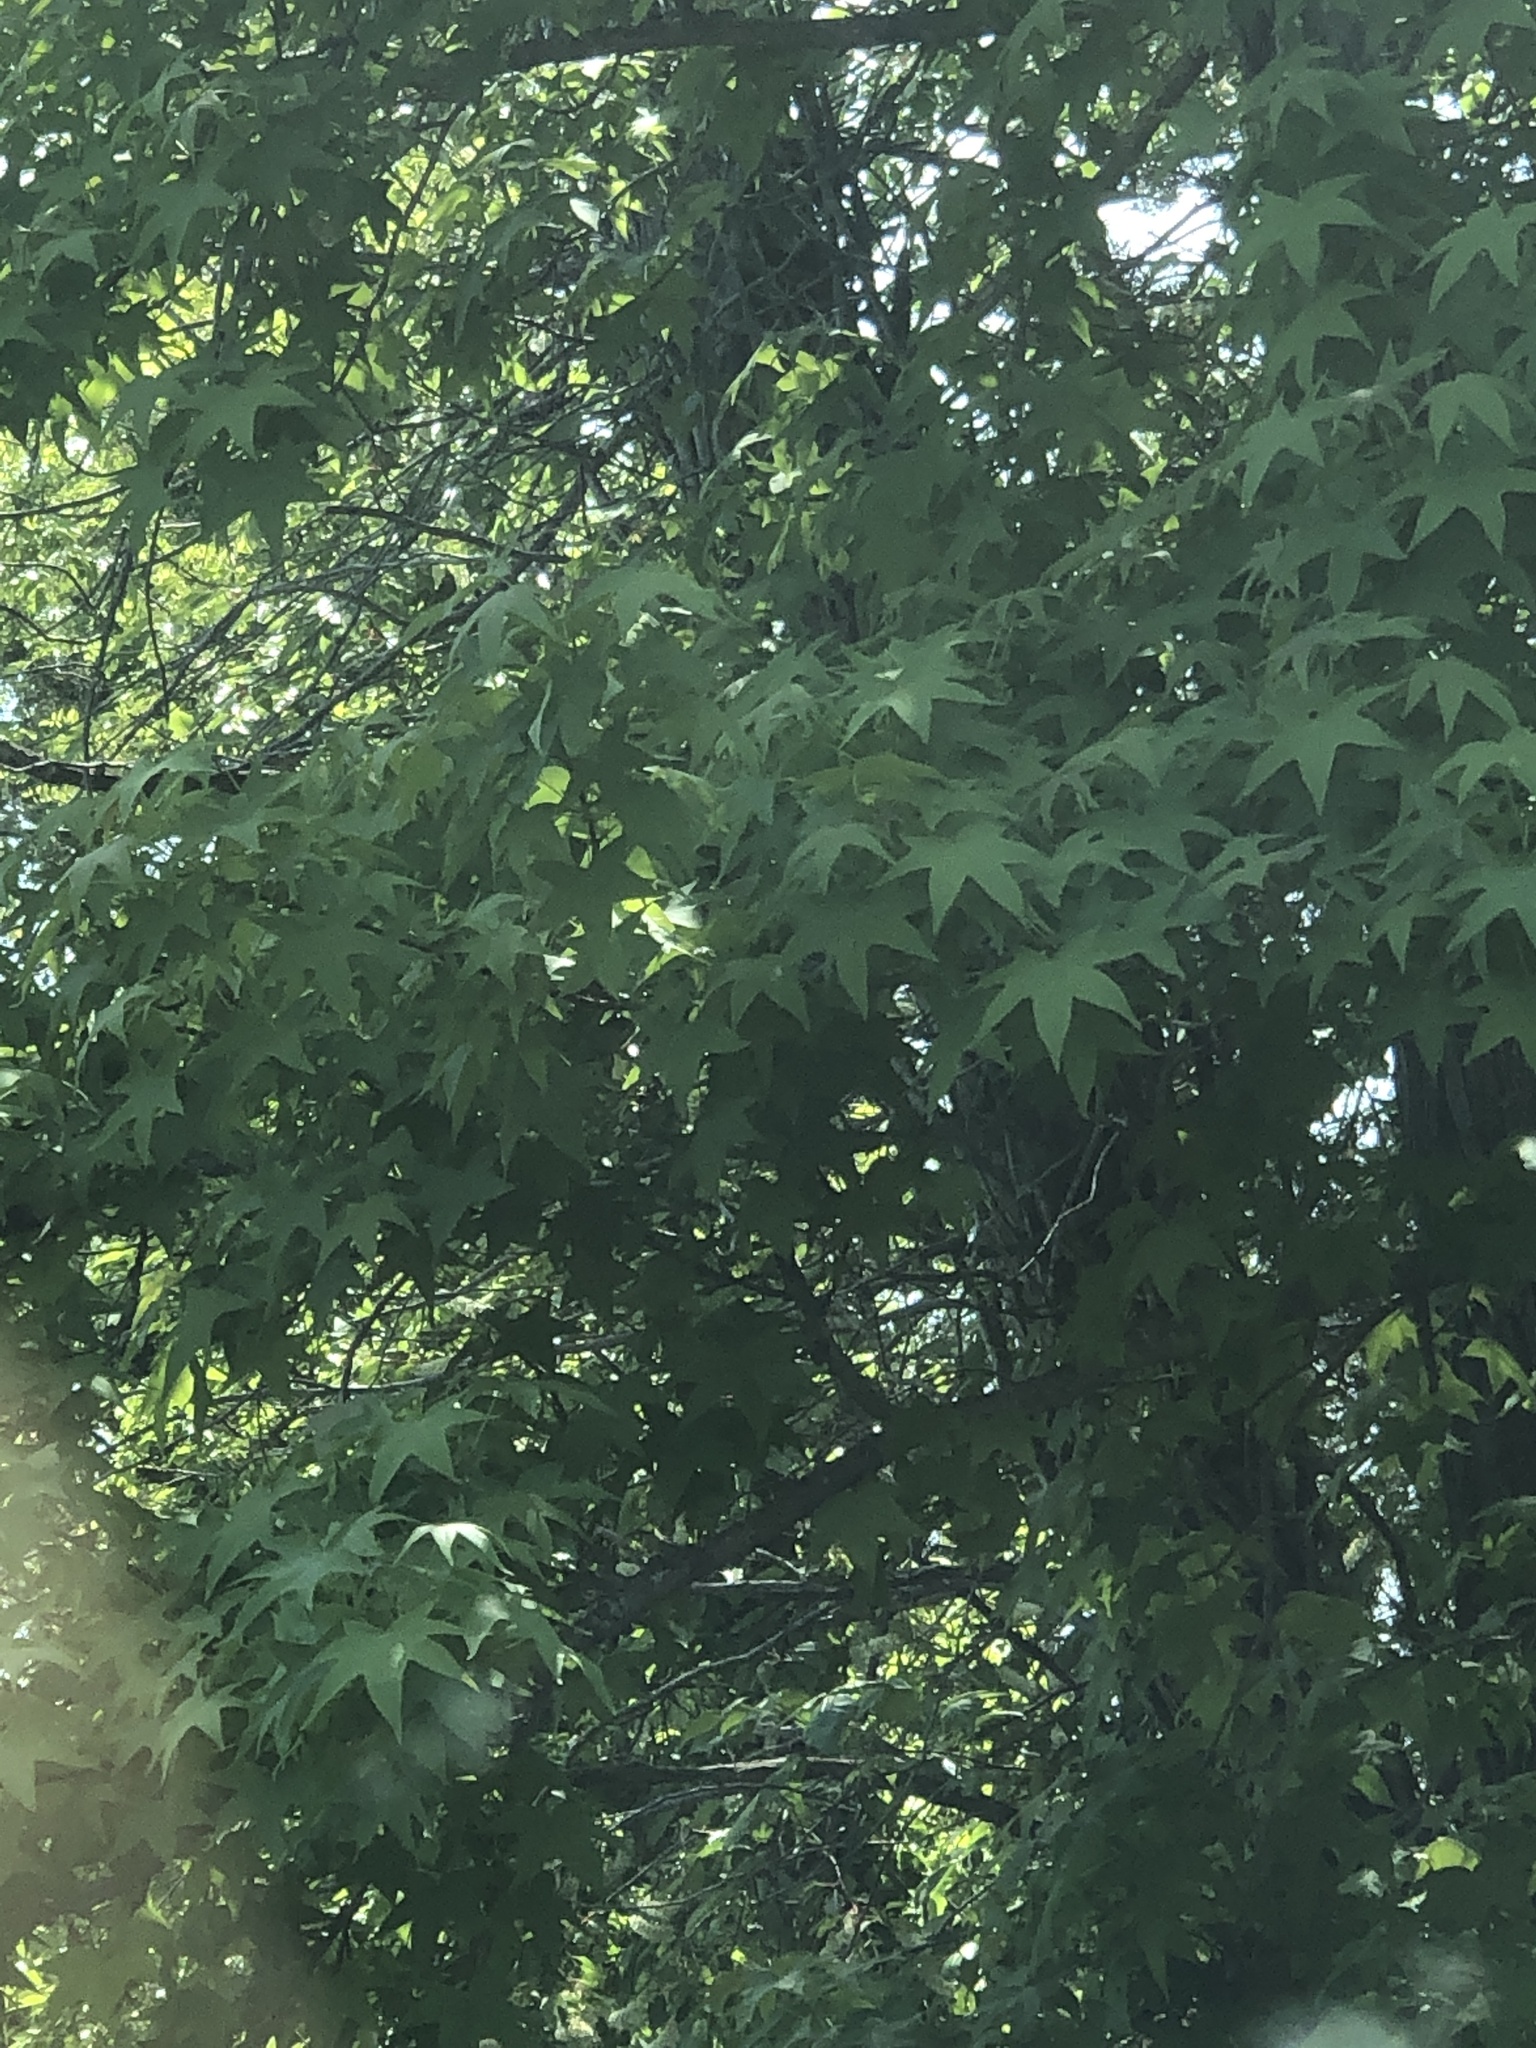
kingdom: Plantae
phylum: Tracheophyta
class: Magnoliopsida
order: Saxifragales
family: Altingiaceae
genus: Liquidambar
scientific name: Liquidambar styraciflua
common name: Sweet gum
